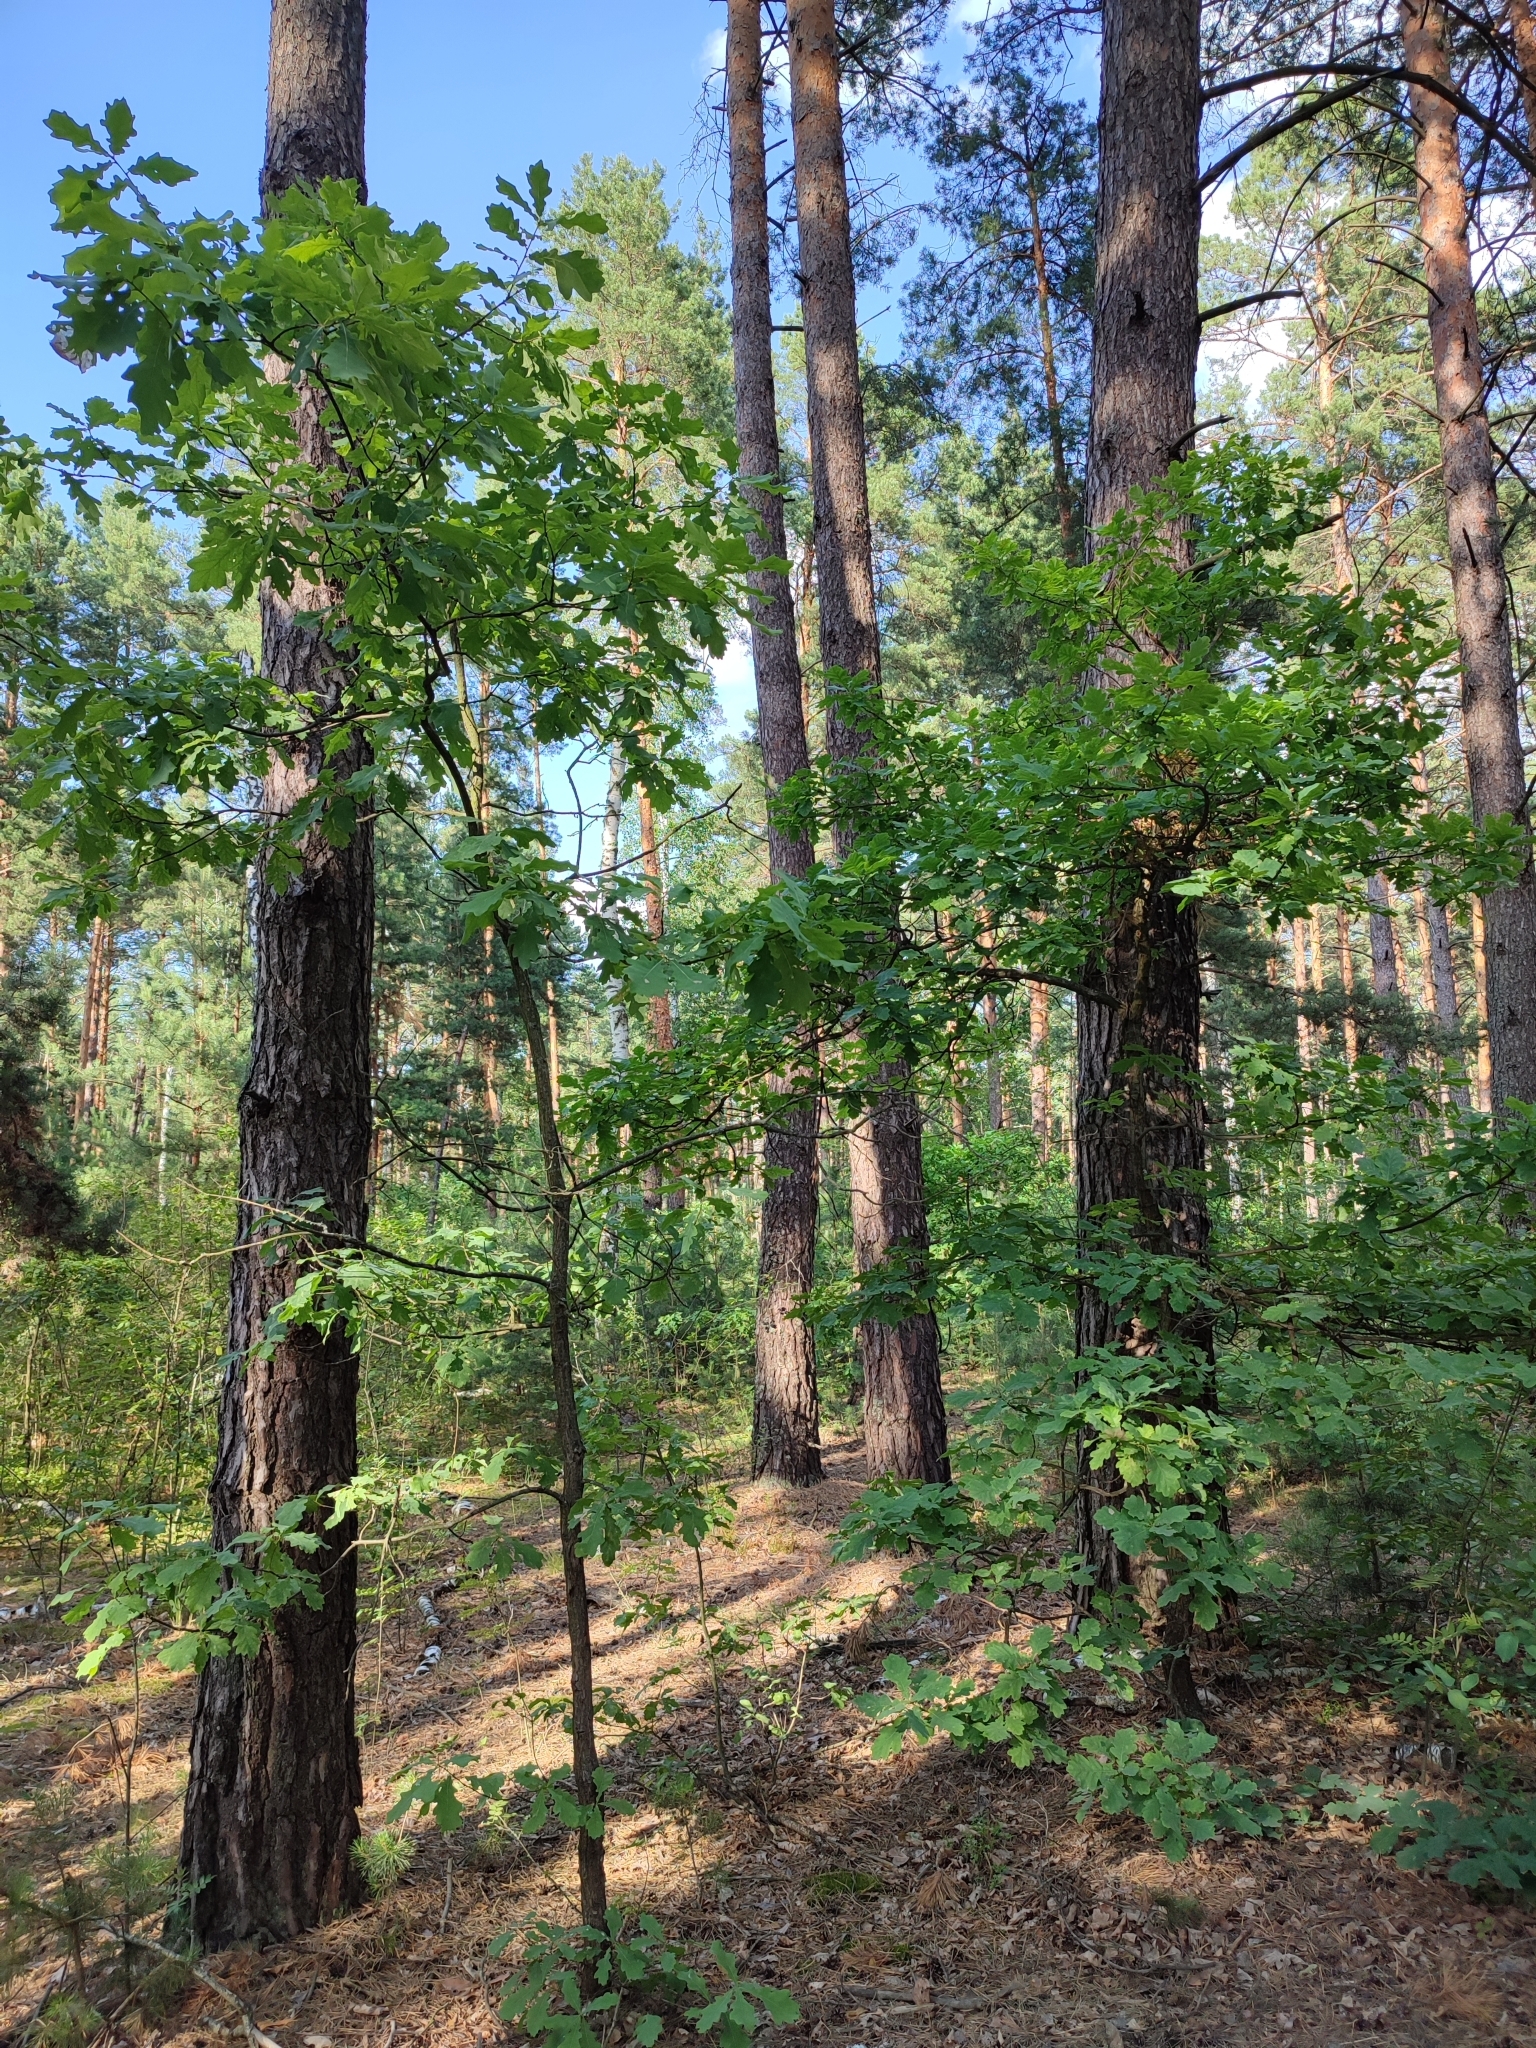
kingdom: Plantae
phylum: Tracheophyta
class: Magnoliopsida
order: Fagales
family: Fagaceae
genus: Quercus
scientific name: Quercus robur
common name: Pedunculate oak
